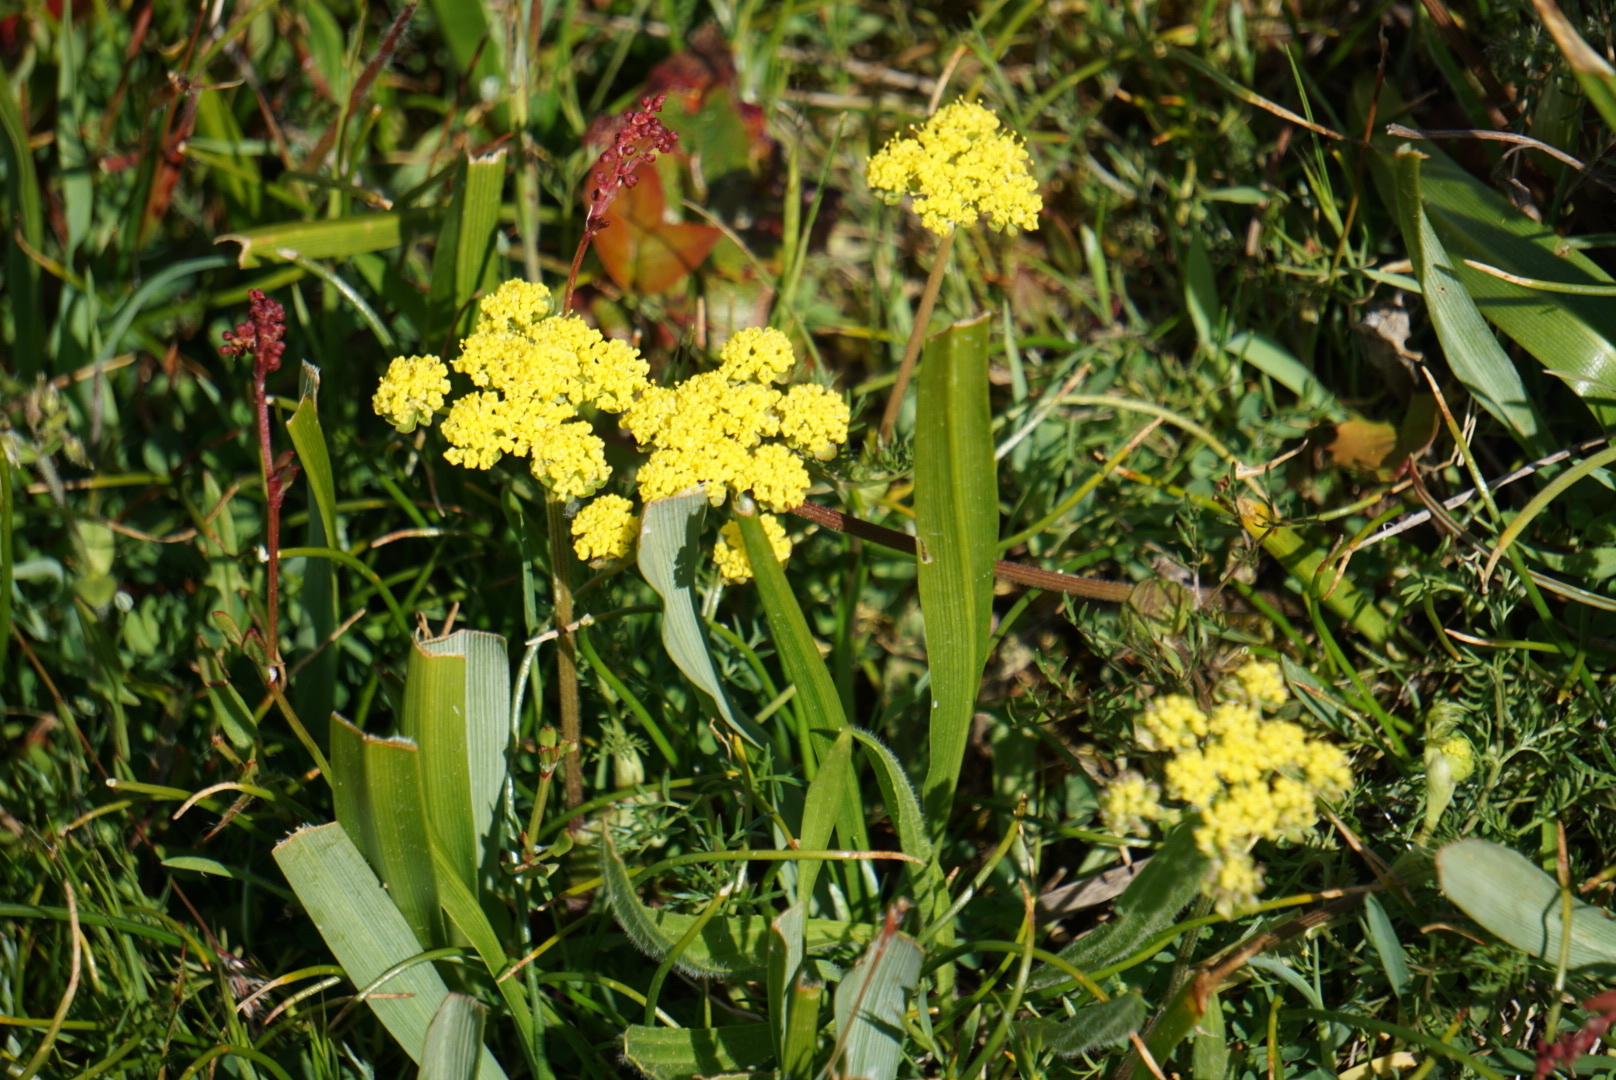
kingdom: Plantae
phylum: Tracheophyta
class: Magnoliopsida
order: Apiales
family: Apiaceae
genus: Lomatium
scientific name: Lomatium utriculatum
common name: Fine-leaf desert-parsley
